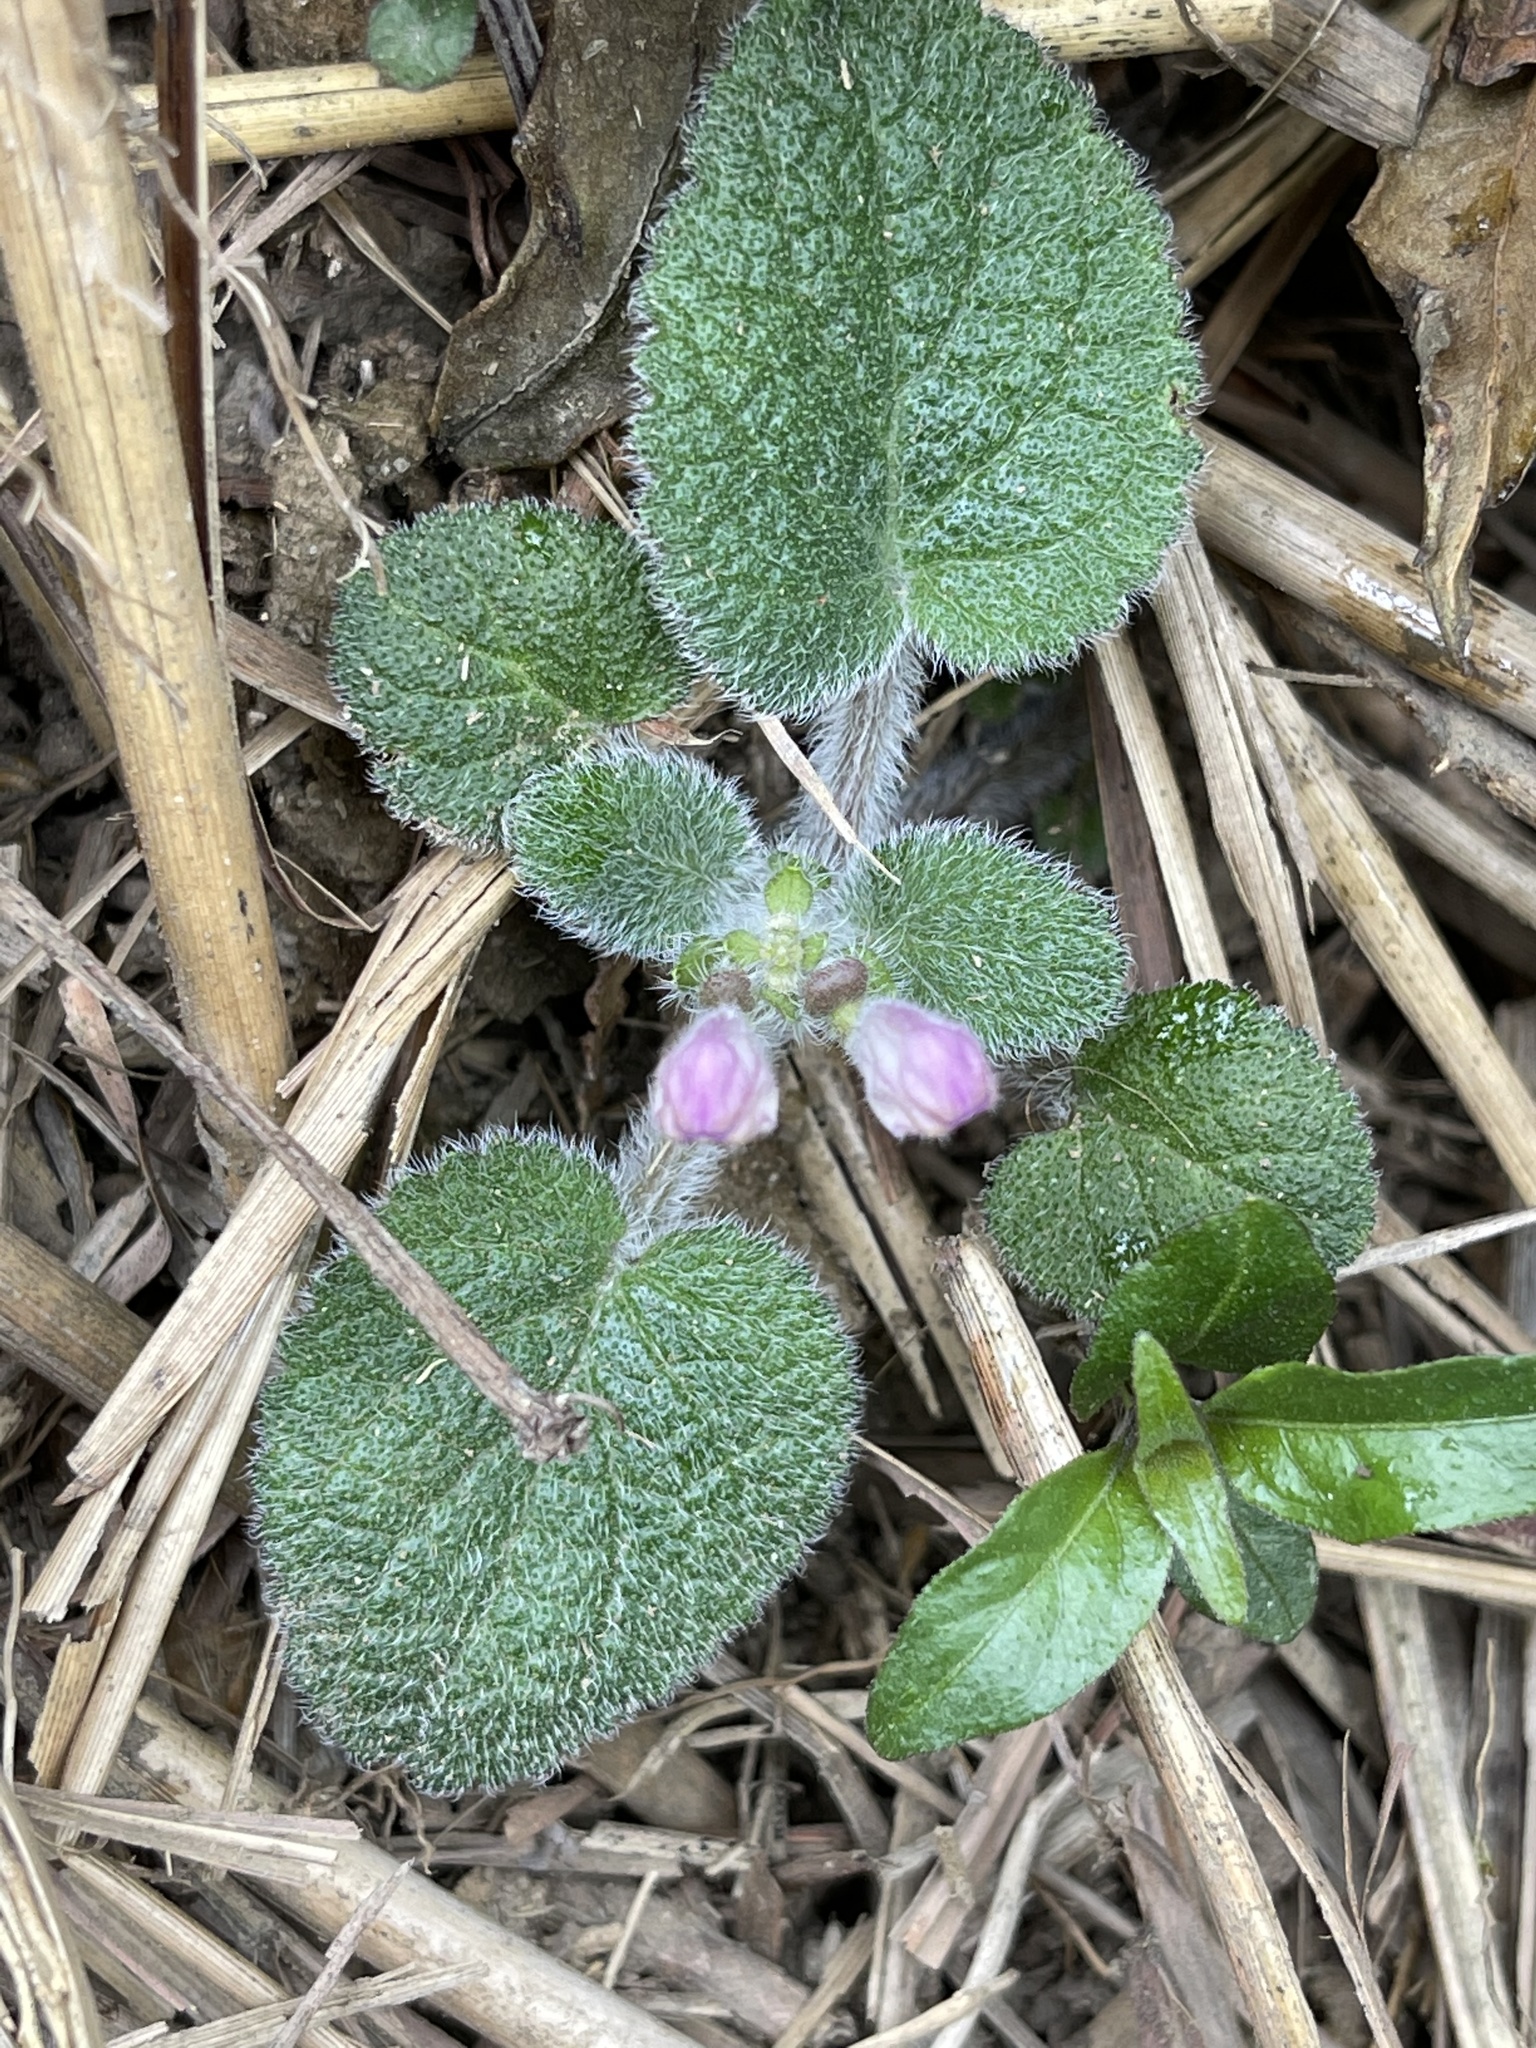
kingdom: Plantae
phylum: Tracheophyta
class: Magnoliopsida
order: Lamiales
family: Lamiaceae
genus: Scutellaria
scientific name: Scutellaria tayloriana
